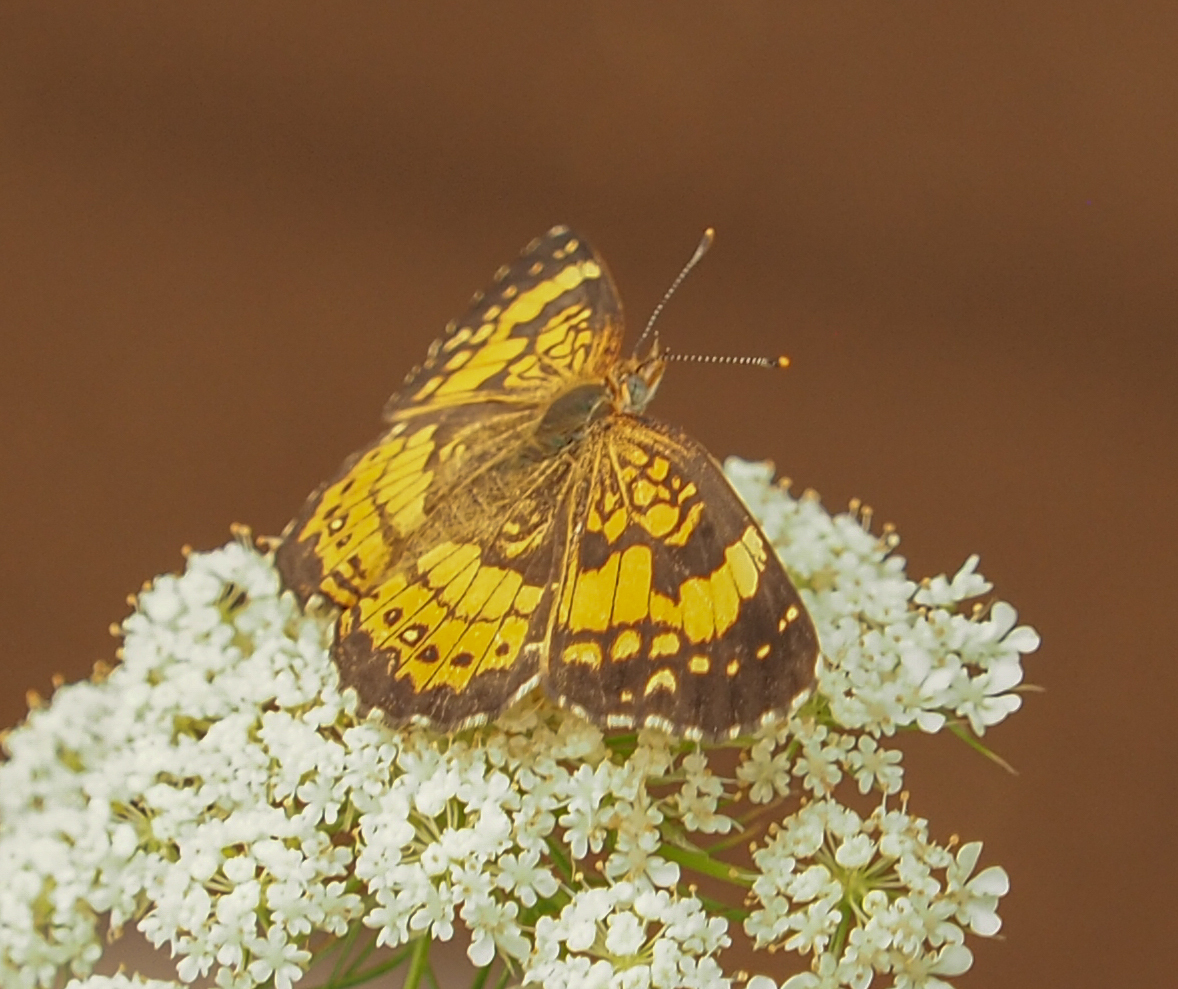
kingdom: Animalia
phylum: Arthropoda
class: Insecta
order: Lepidoptera
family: Nymphalidae
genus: Chlosyne
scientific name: Chlosyne nycteis
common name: Silvery checkerspot
